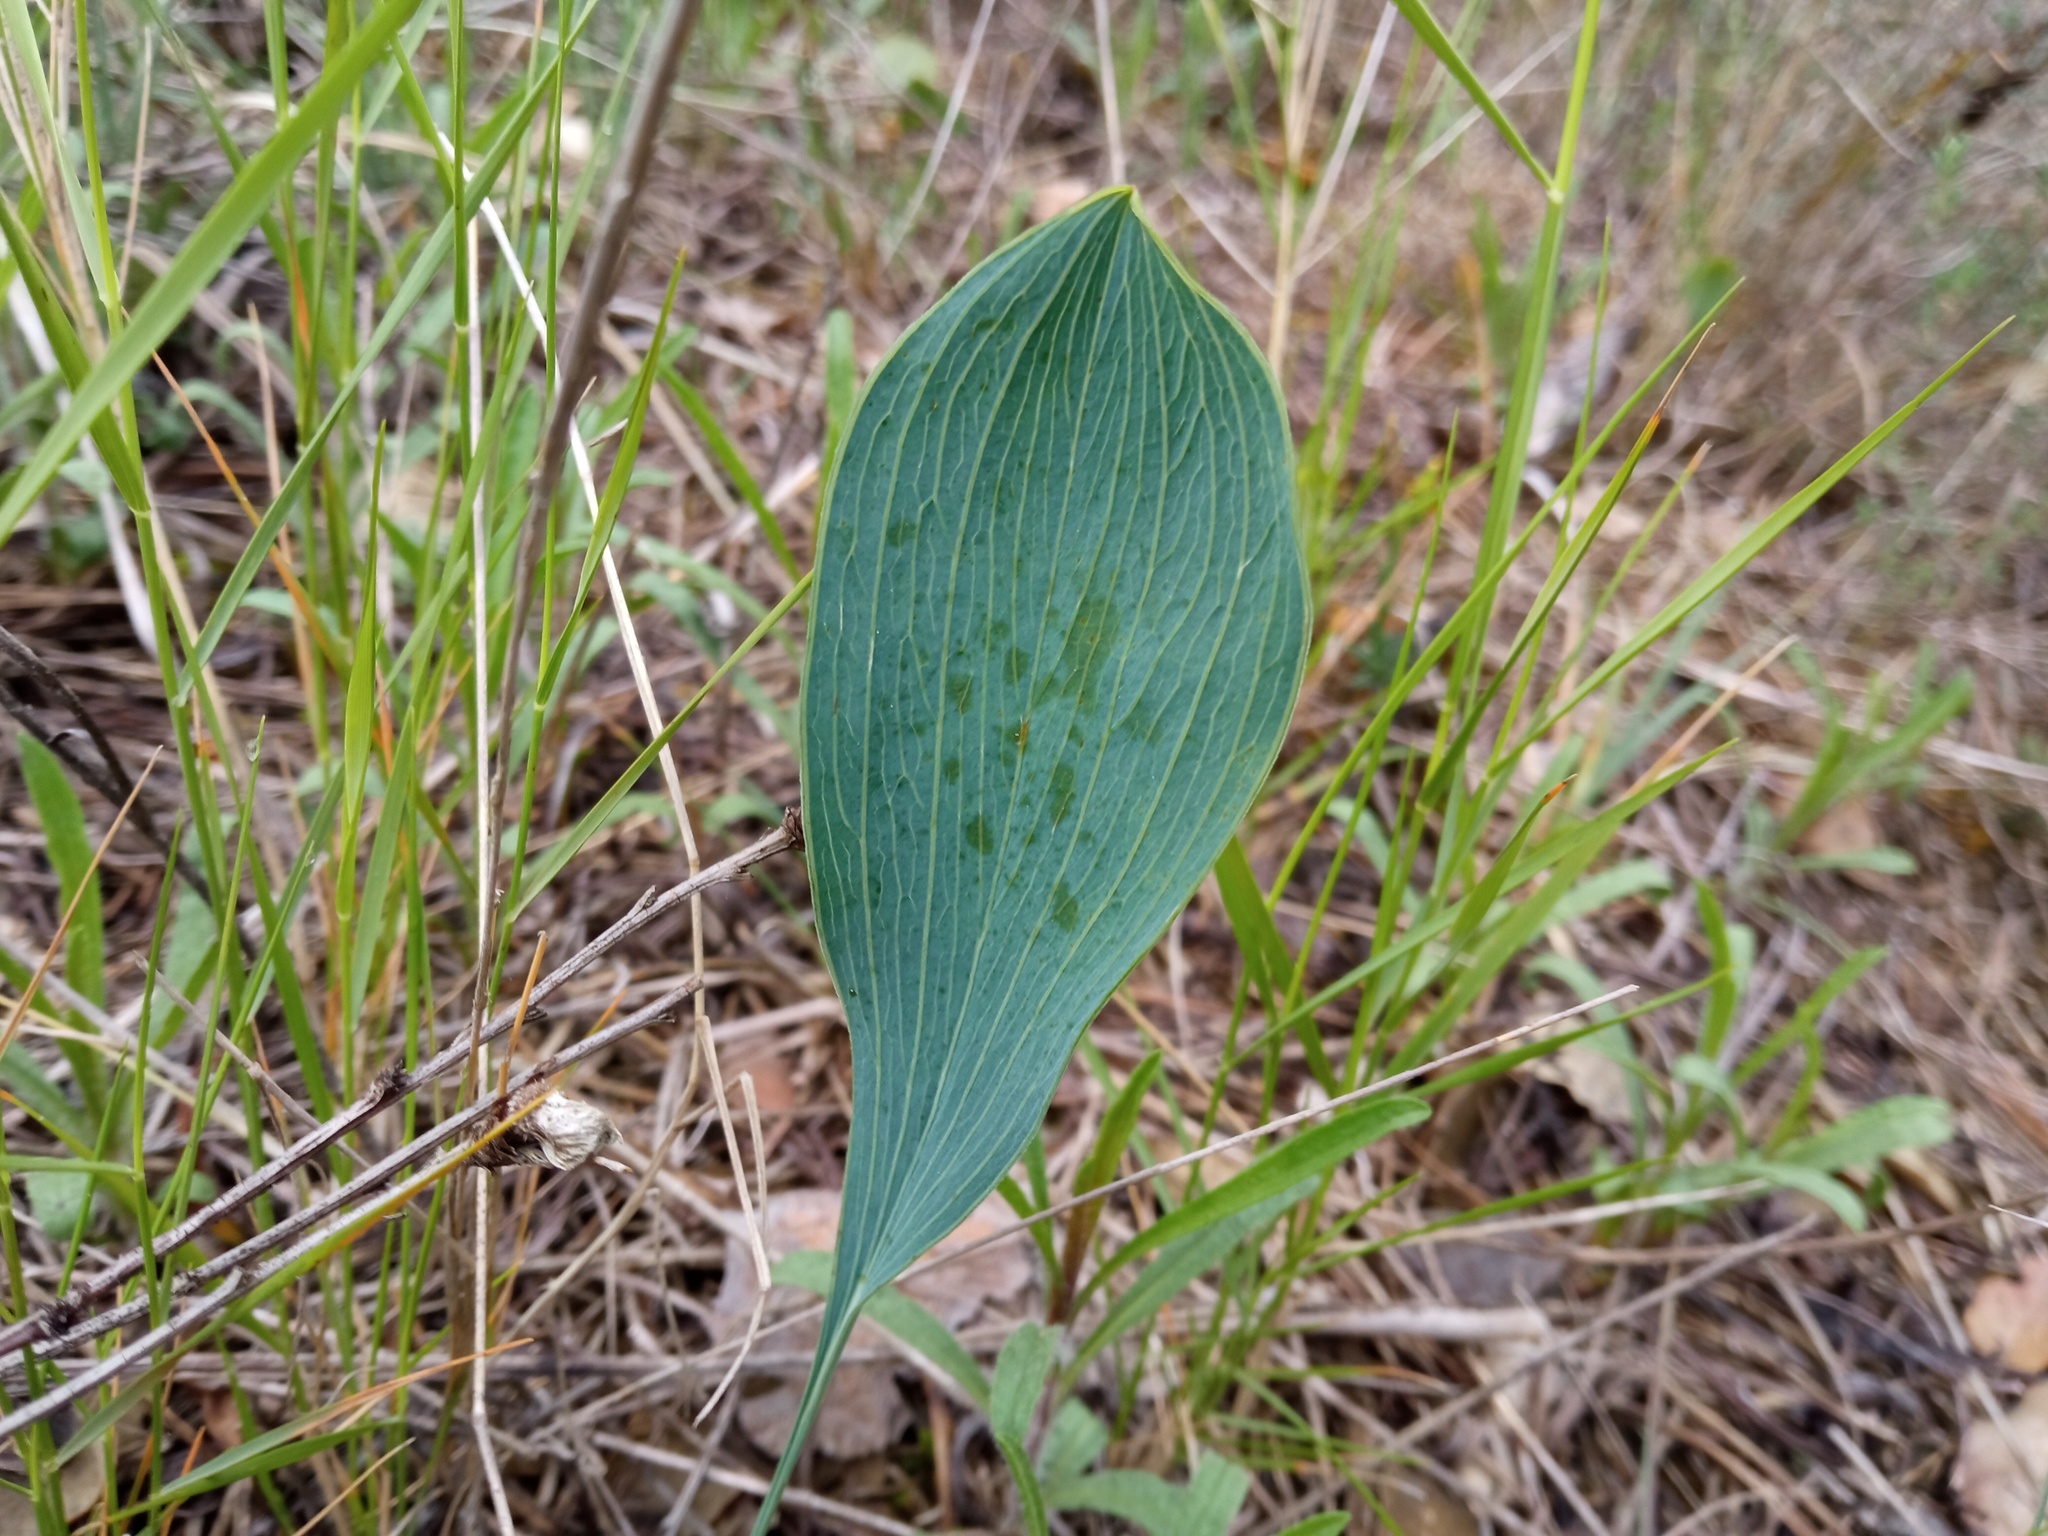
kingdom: Plantae
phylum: Tracheophyta
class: Magnoliopsida
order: Apiales
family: Apiaceae
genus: Bupleurum
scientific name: Bupleurum rigidum
